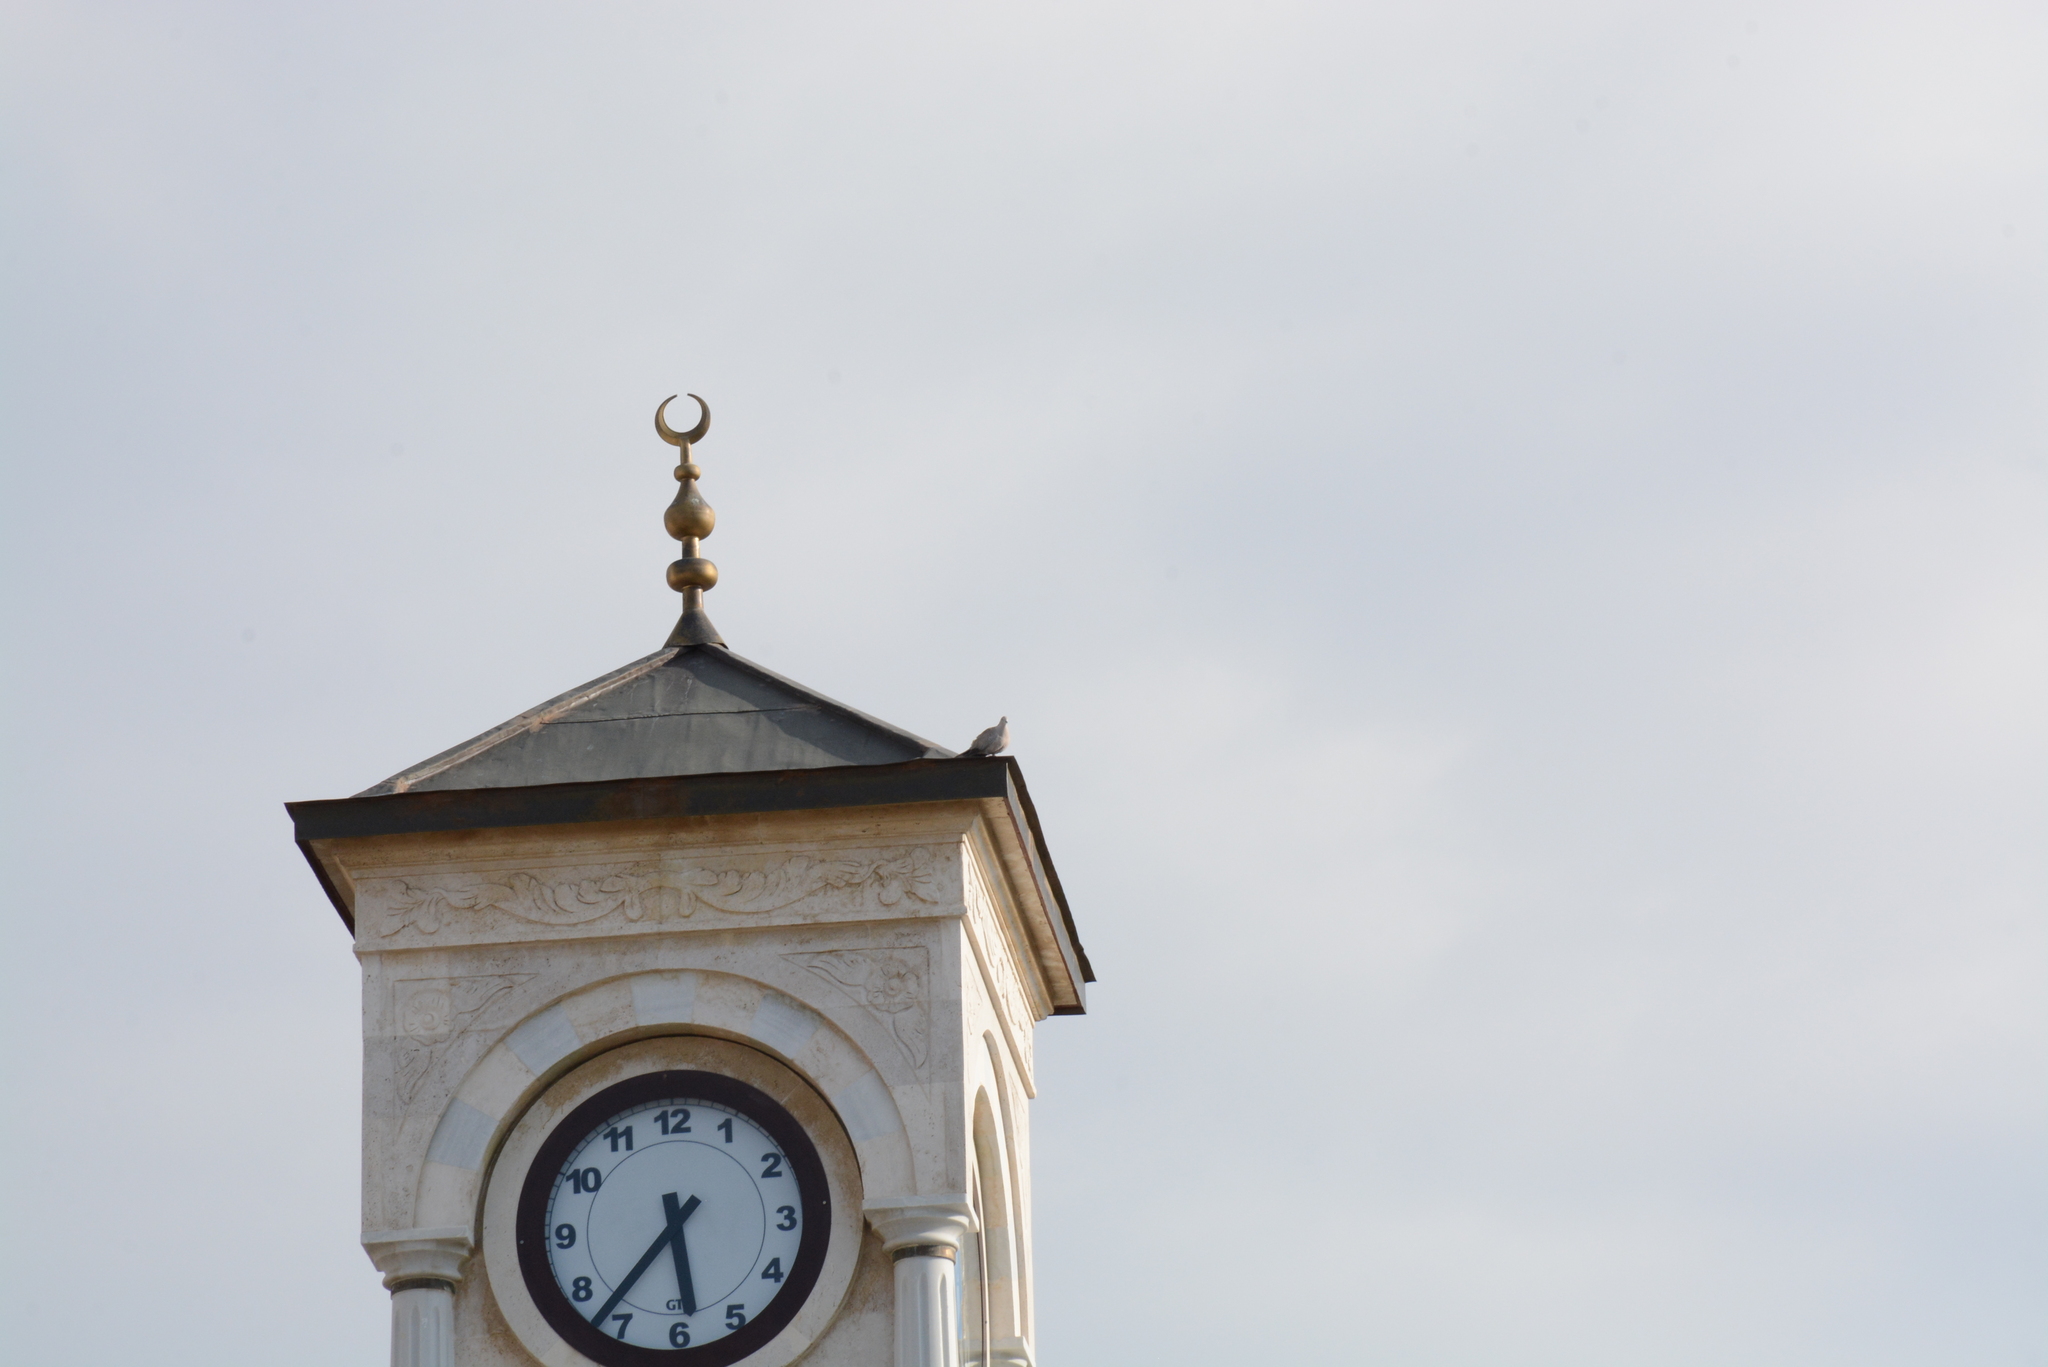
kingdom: Animalia
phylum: Chordata
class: Aves
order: Columbiformes
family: Columbidae
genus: Streptopelia
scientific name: Streptopelia decaocto
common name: Eurasian collared dove
